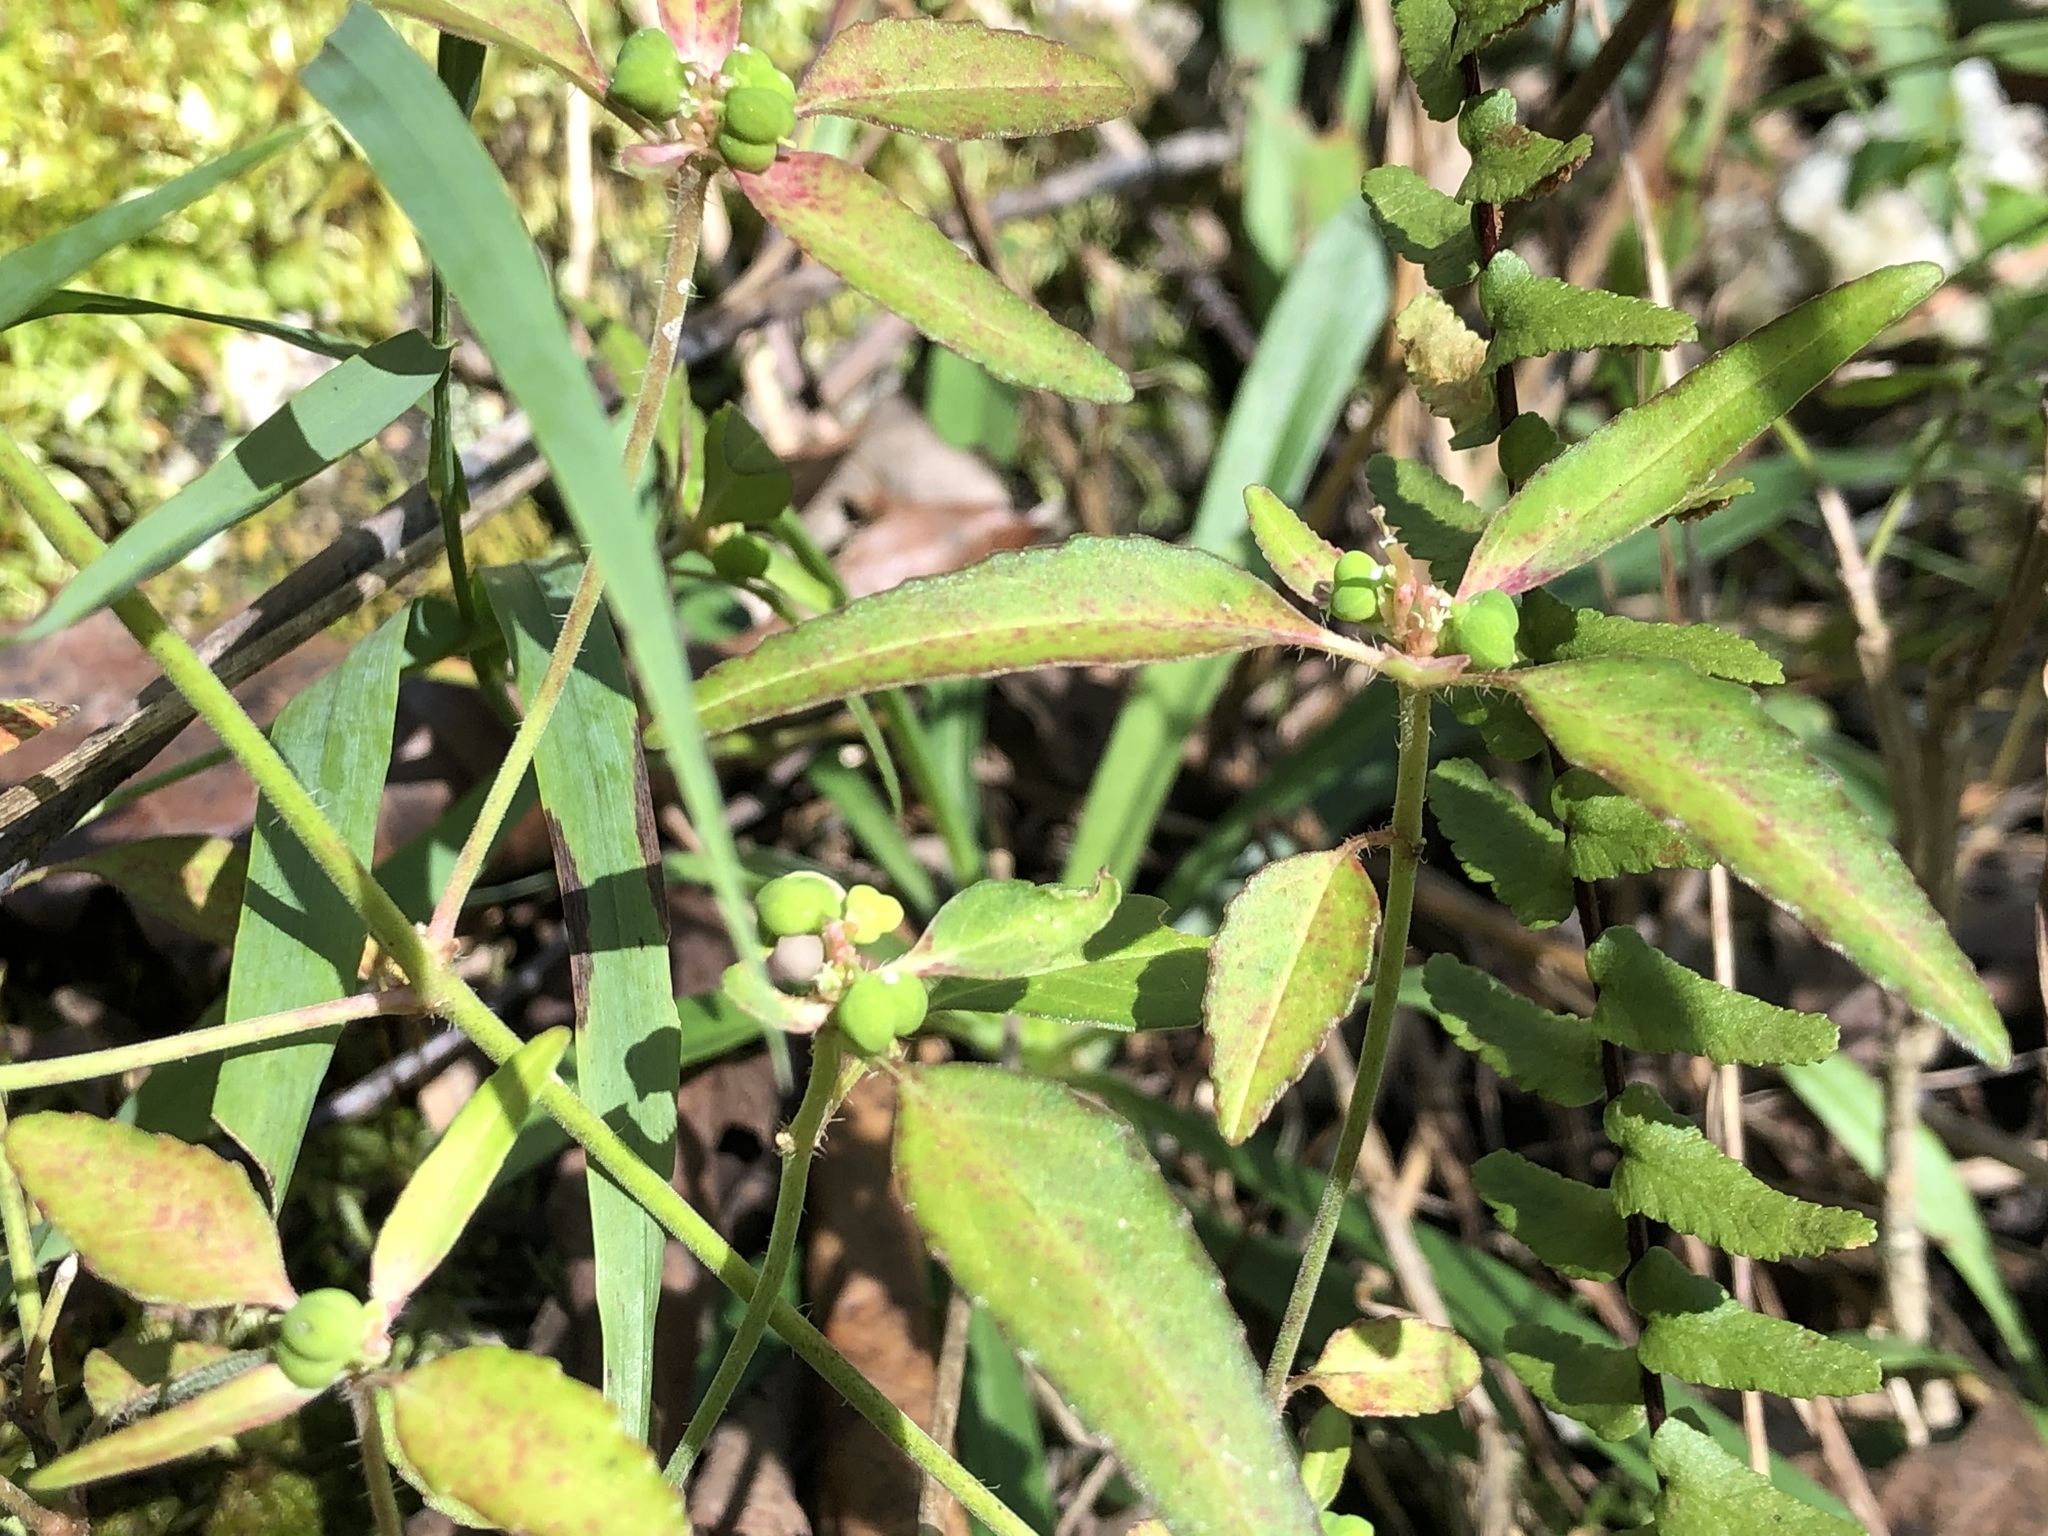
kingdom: Plantae
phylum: Tracheophyta
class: Magnoliopsida
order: Malpighiales
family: Euphorbiaceae
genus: Euphorbia
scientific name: Euphorbia dentata
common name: Dentate spurge
